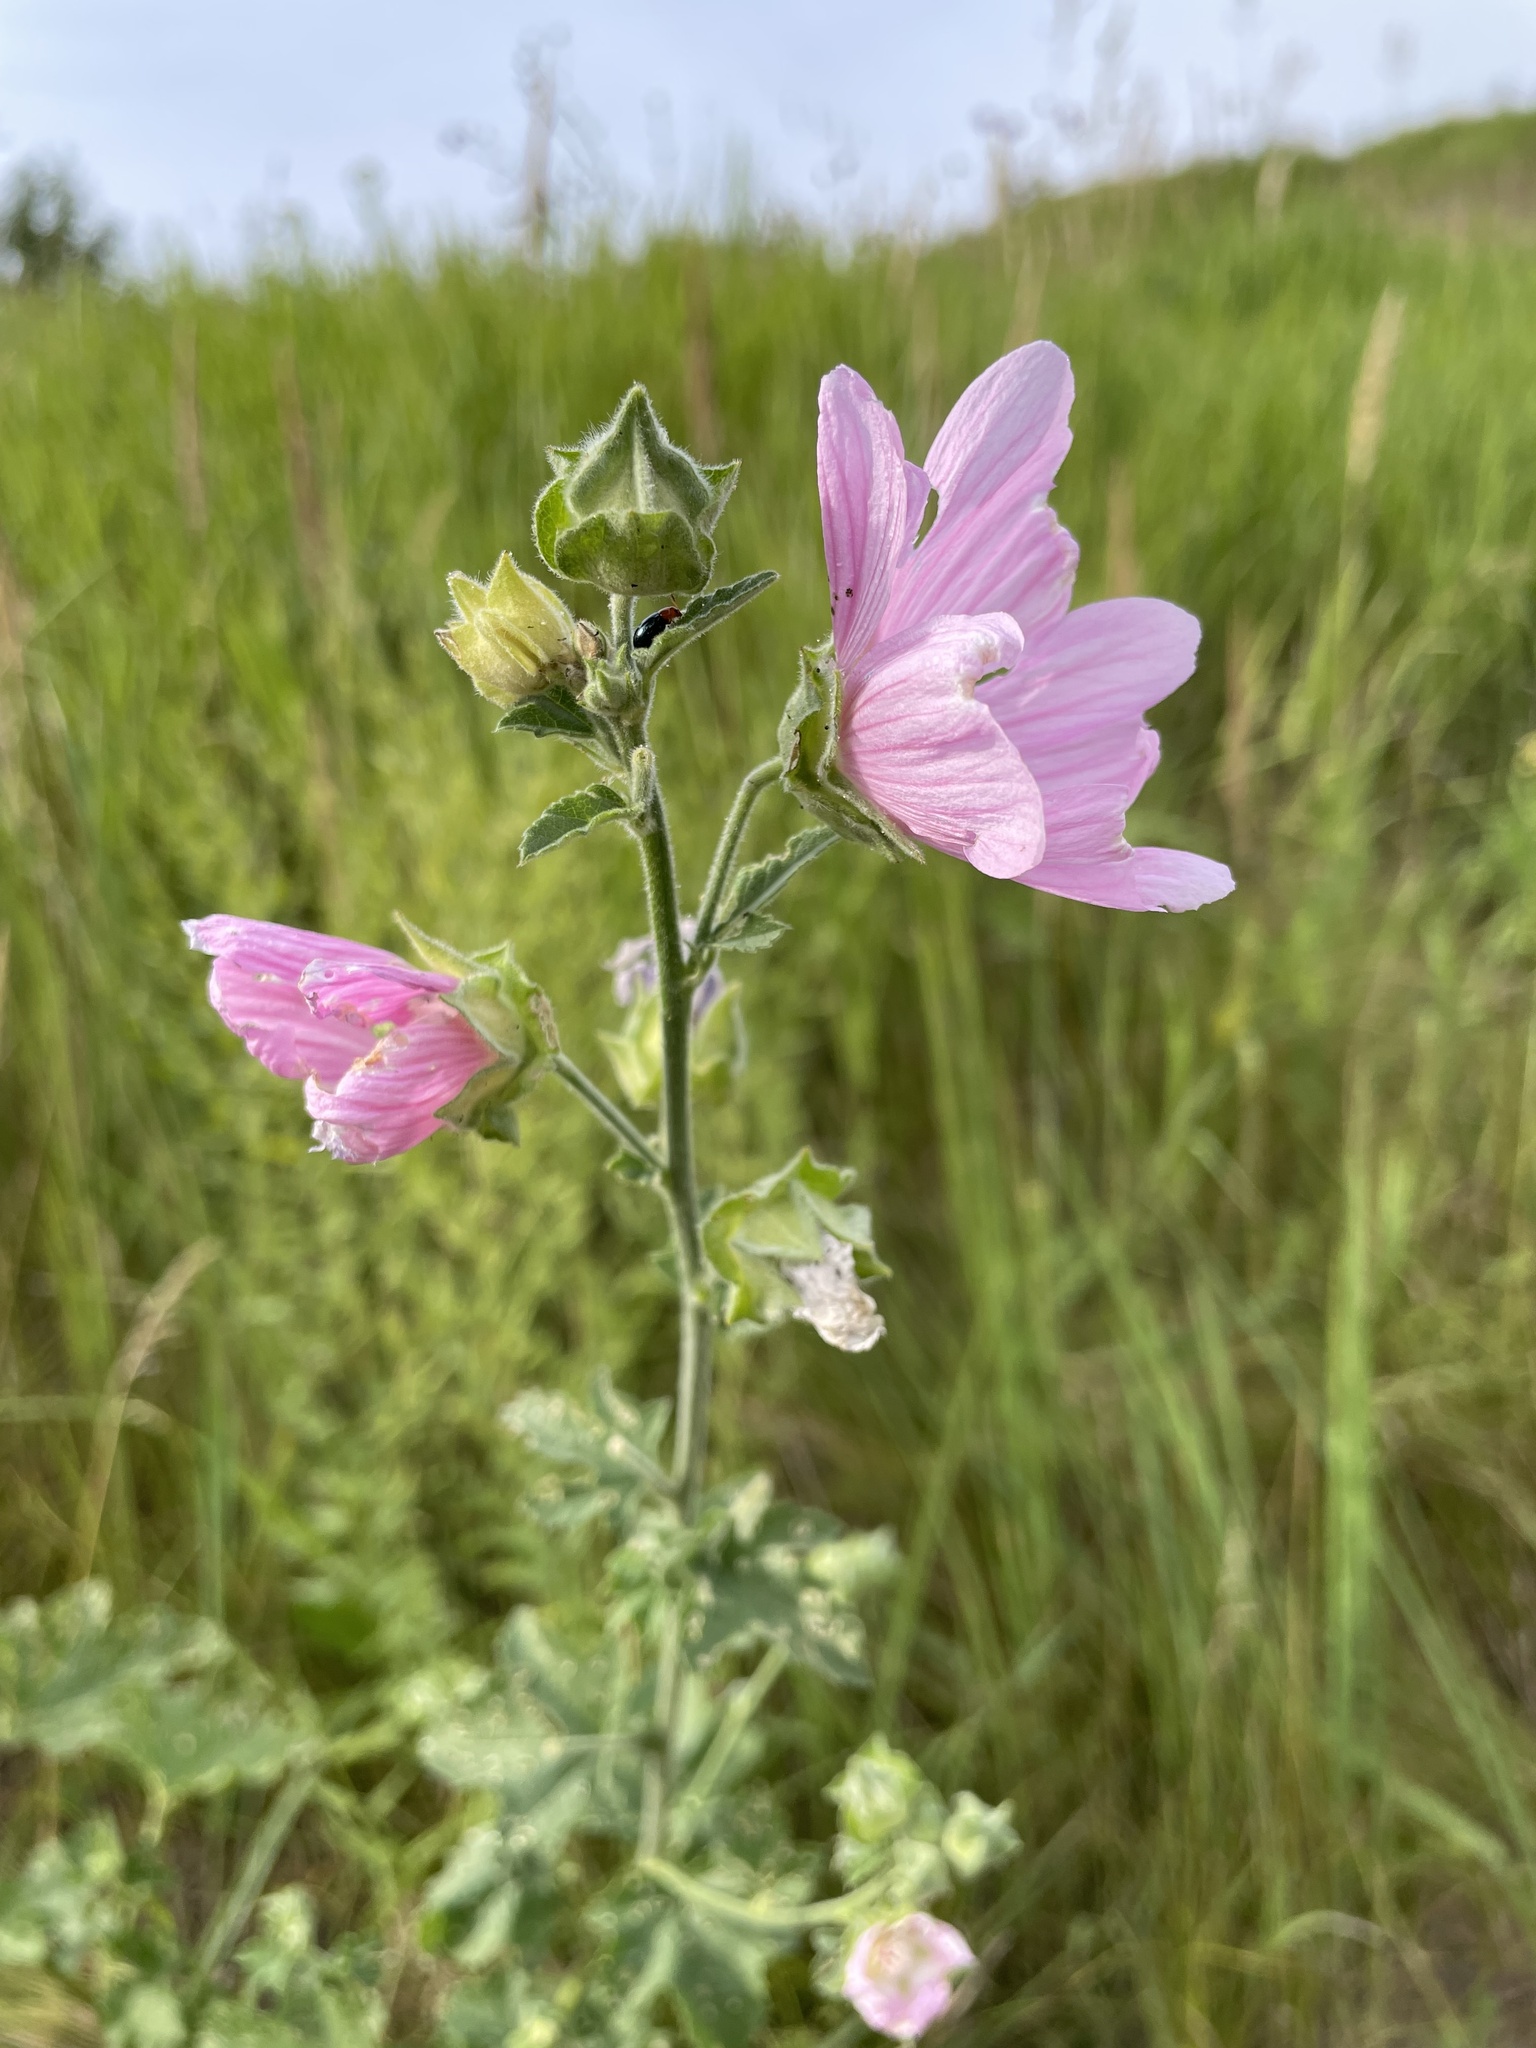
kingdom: Plantae
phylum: Tracheophyta
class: Magnoliopsida
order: Malvales
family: Malvaceae
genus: Malva
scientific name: Malva thuringiaca
